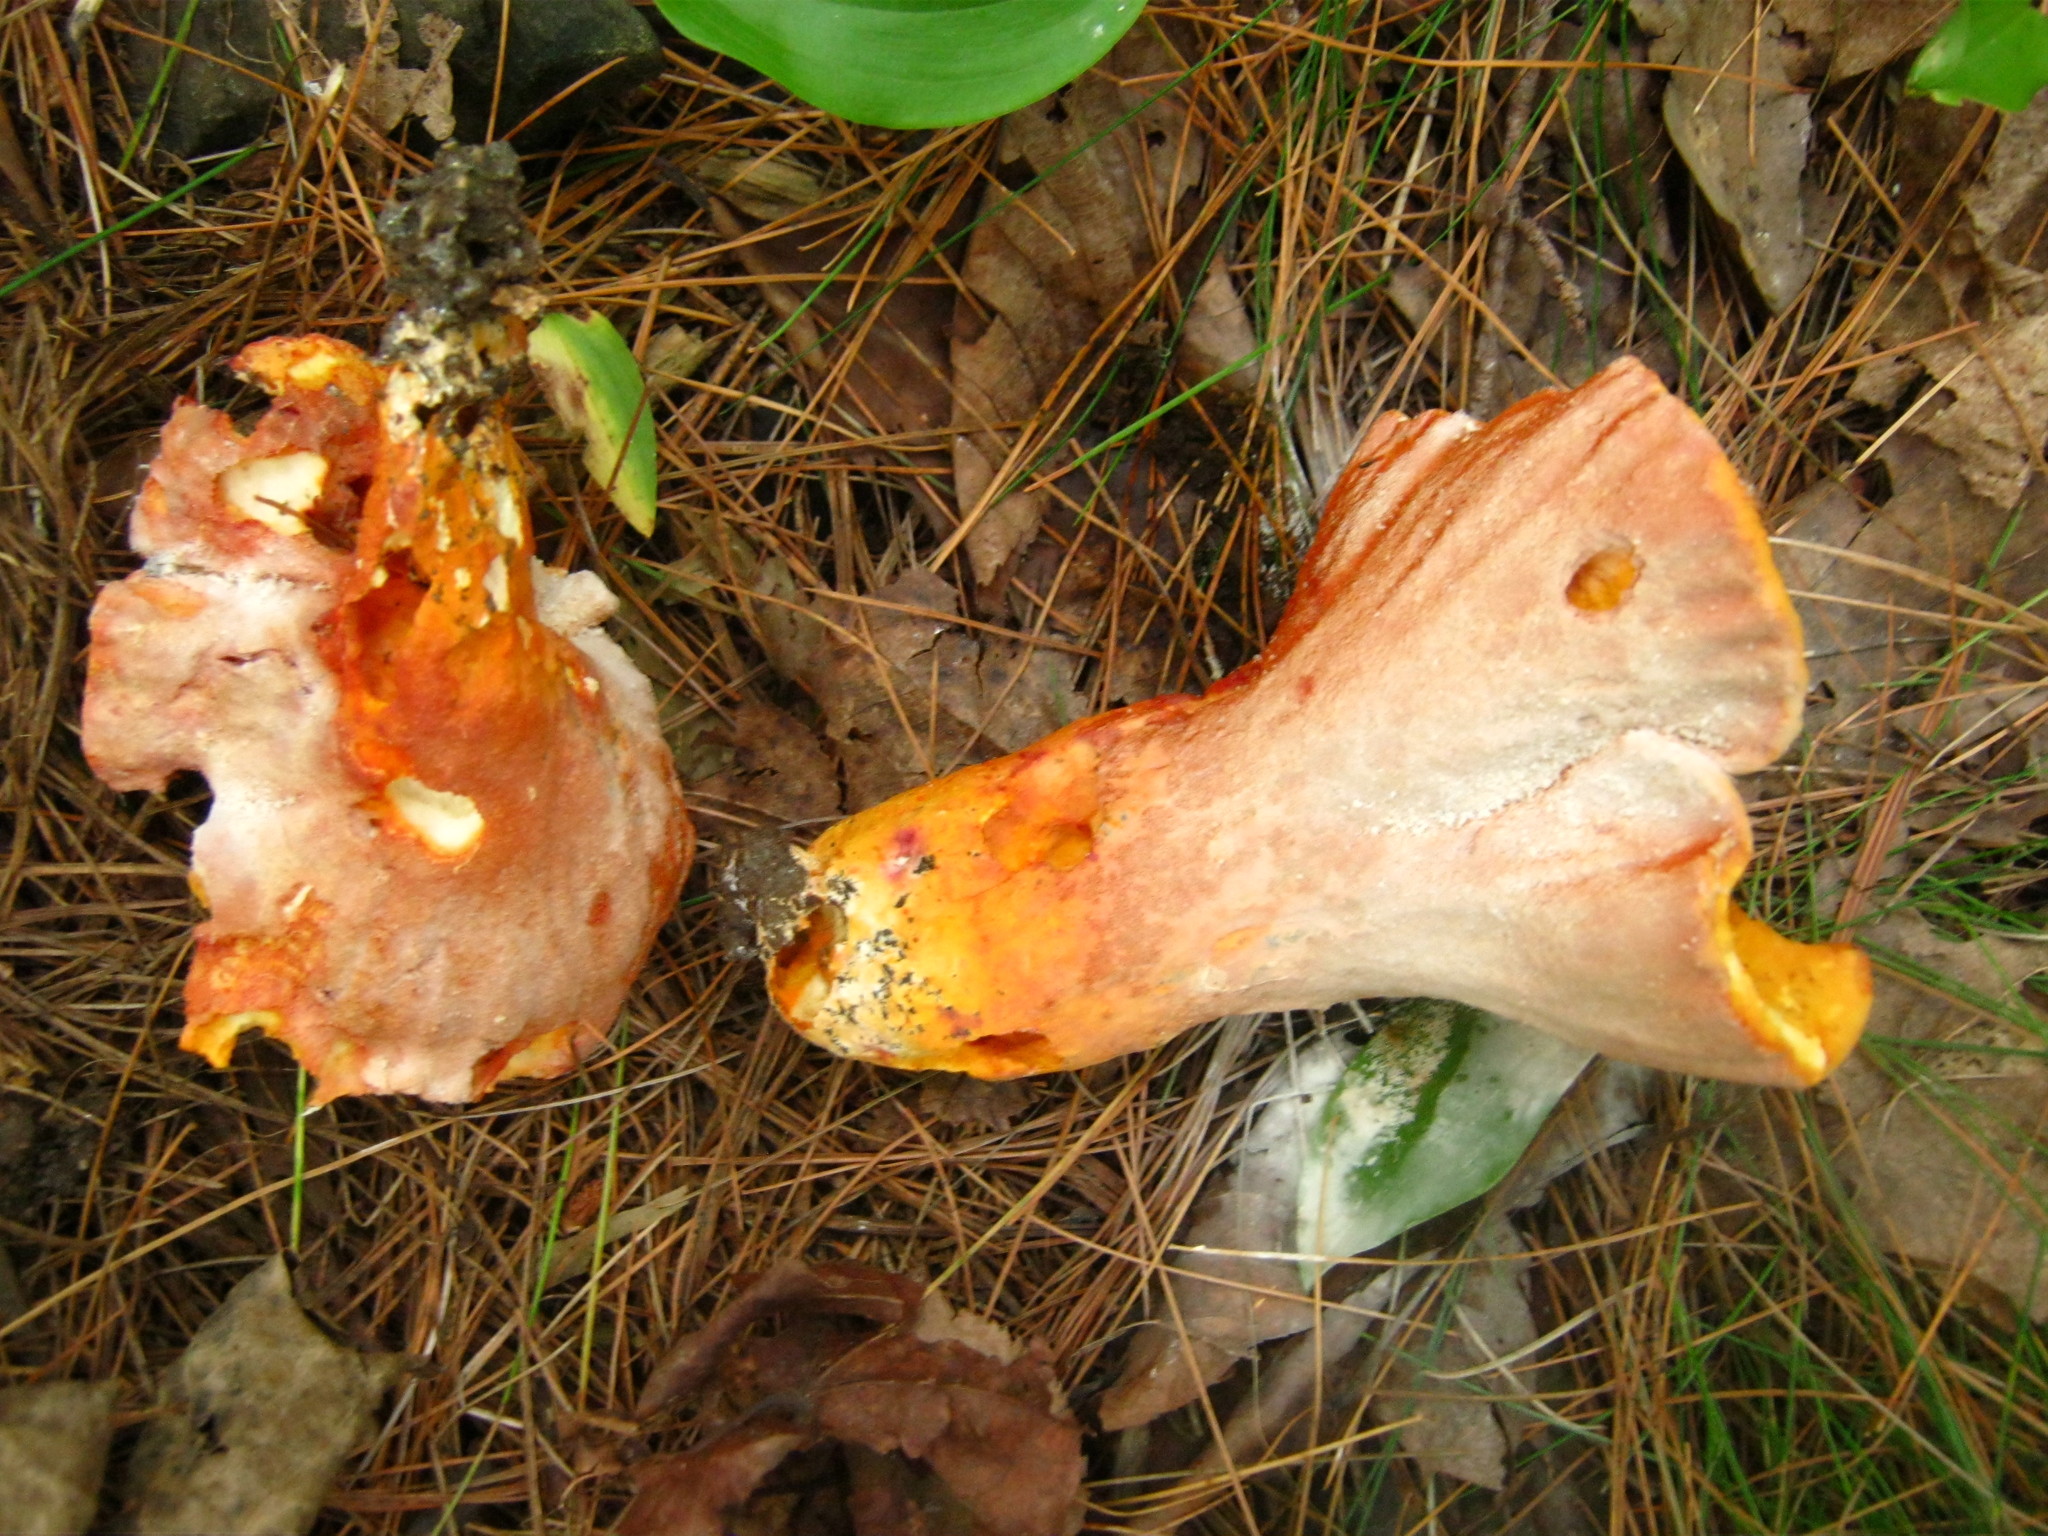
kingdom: Fungi
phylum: Ascomycota
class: Sordariomycetes
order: Hypocreales
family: Hypocreaceae
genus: Hypomyces
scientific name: Hypomyces lactifluorum
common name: Lobster mushroom
